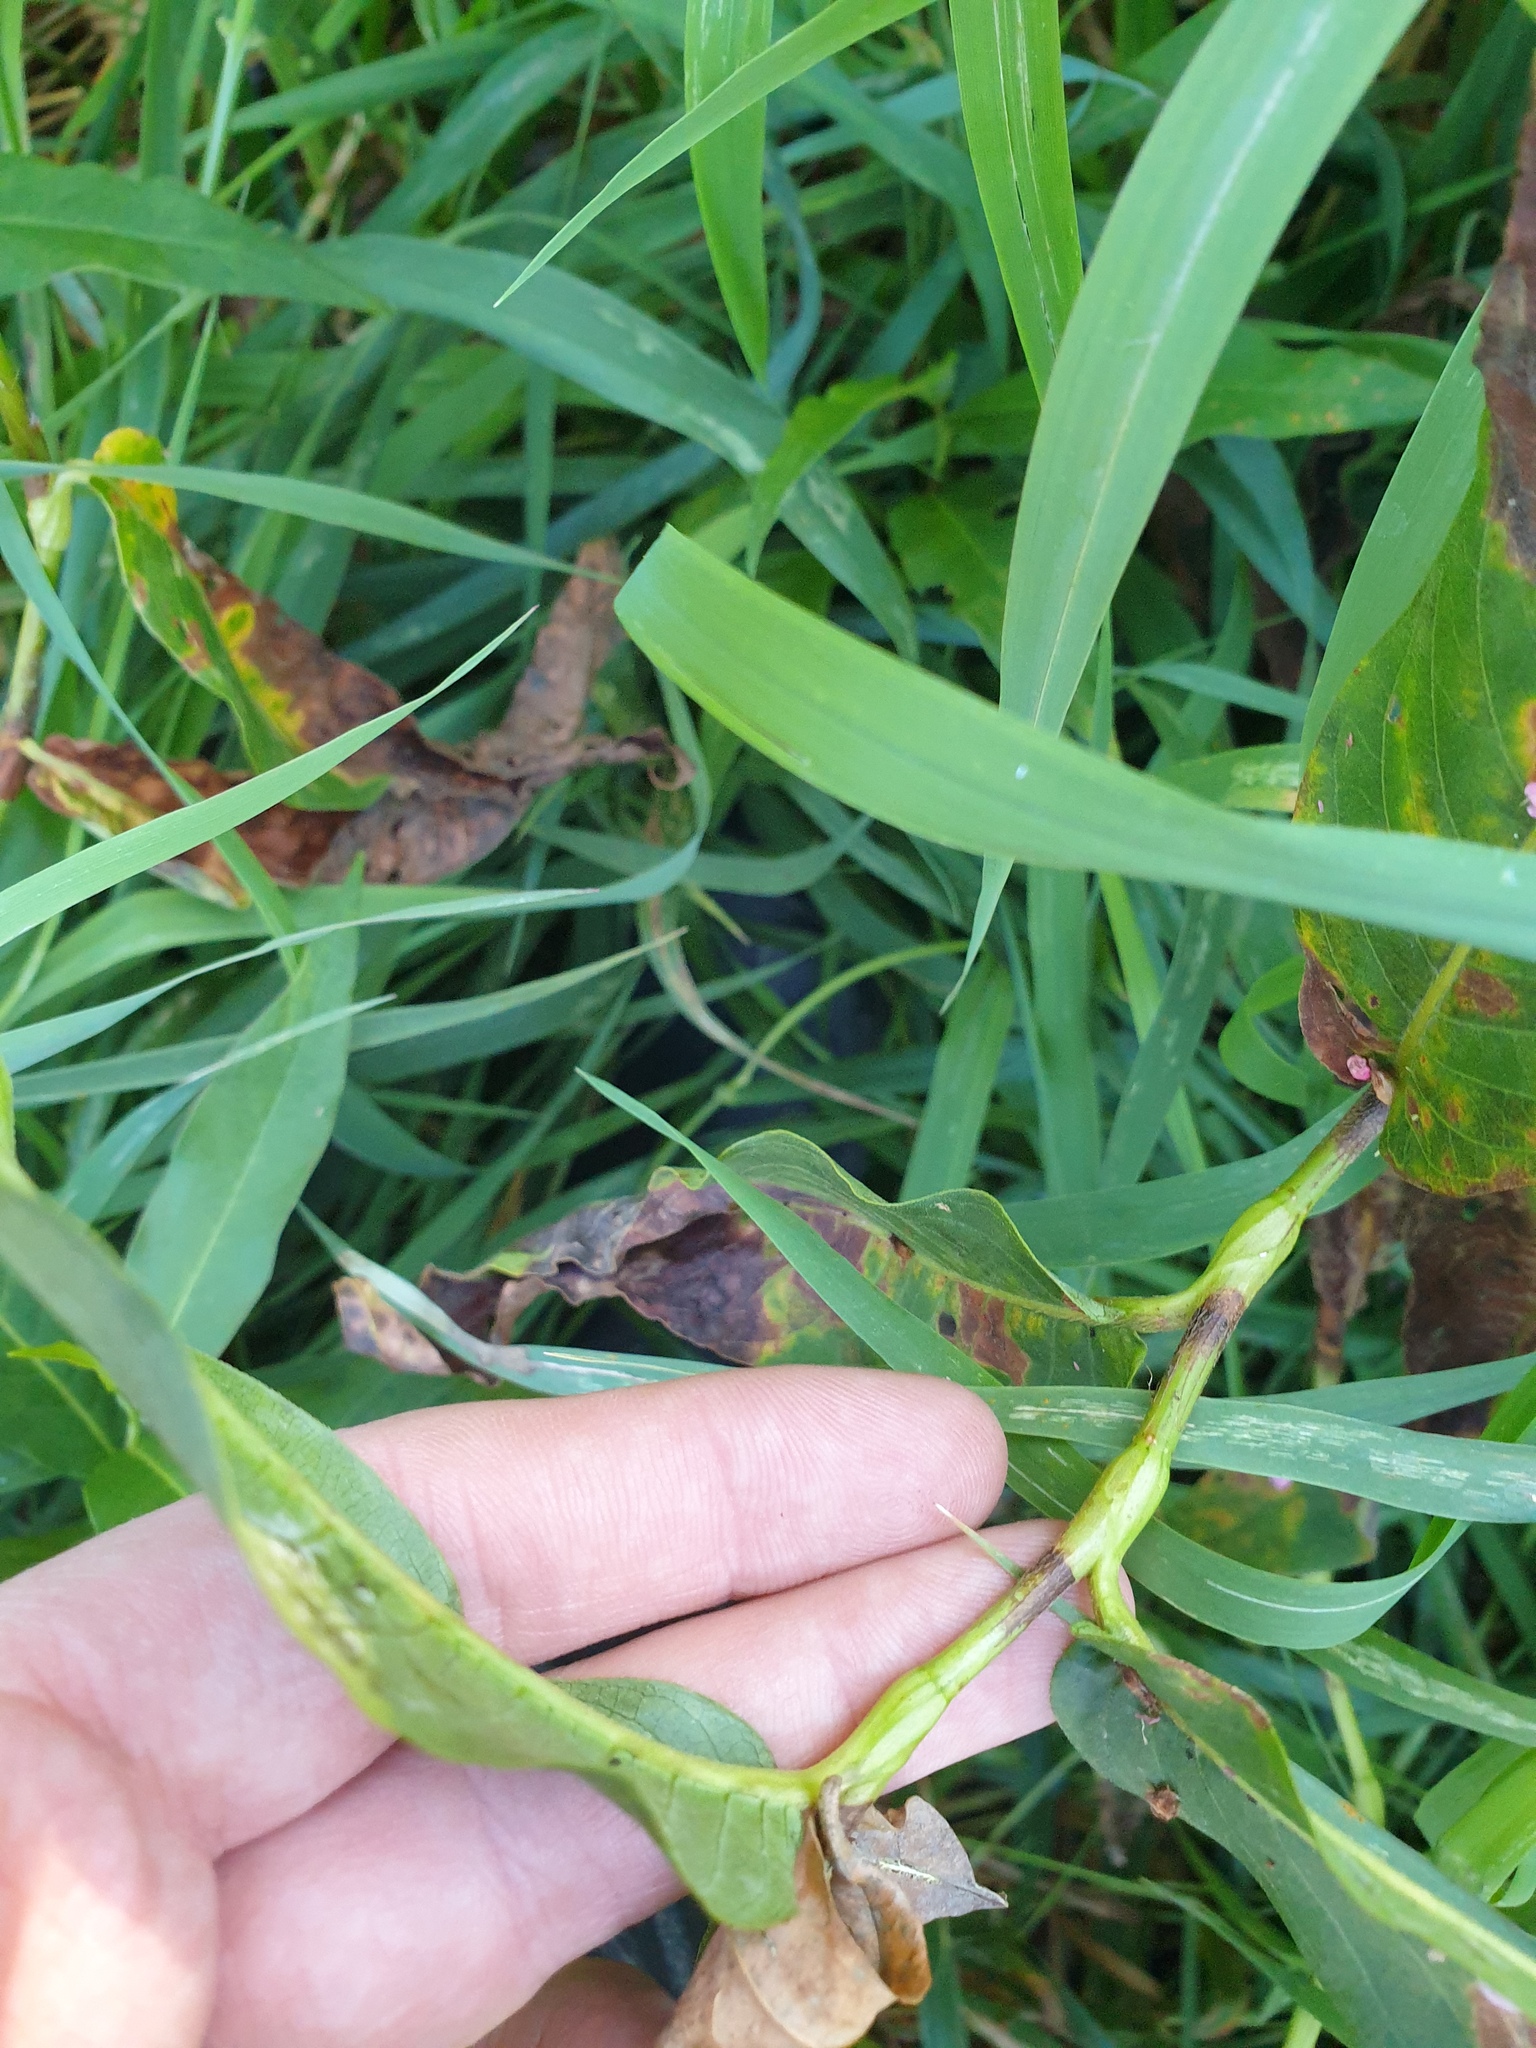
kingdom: Plantae
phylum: Tracheophyta
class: Magnoliopsida
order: Caryophyllales
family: Polygonaceae
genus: Persicaria
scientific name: Persicaria amphibia
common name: Amphibious bistort
